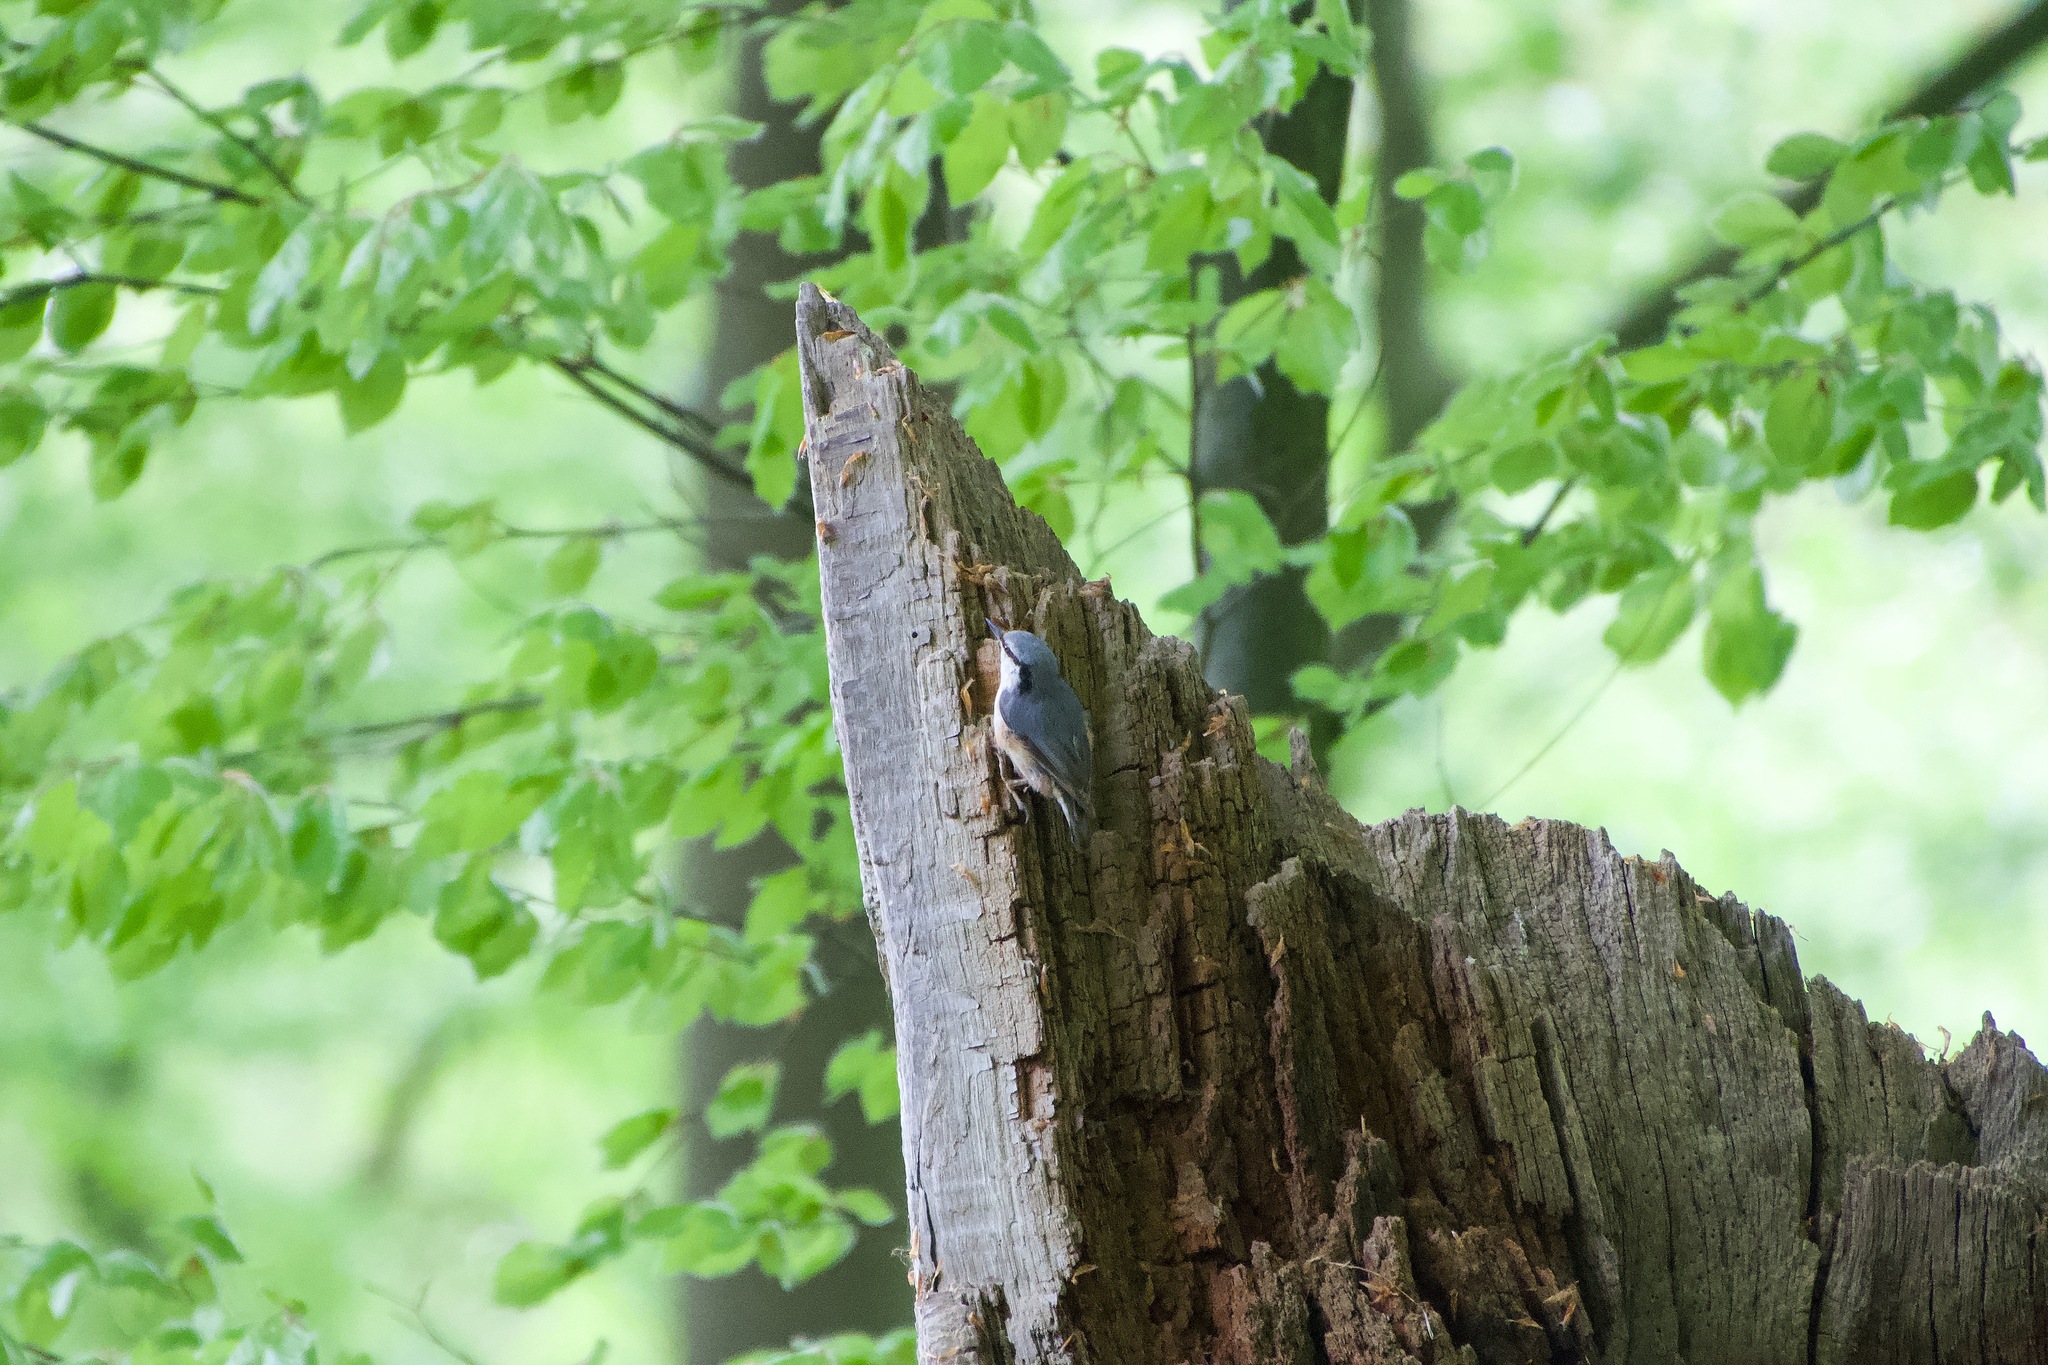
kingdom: Animalia
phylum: Chordata
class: Aves
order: Passeriformes
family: Sittidae
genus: Sitta
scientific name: Sitta europaea
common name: Eurasian nuthatch
